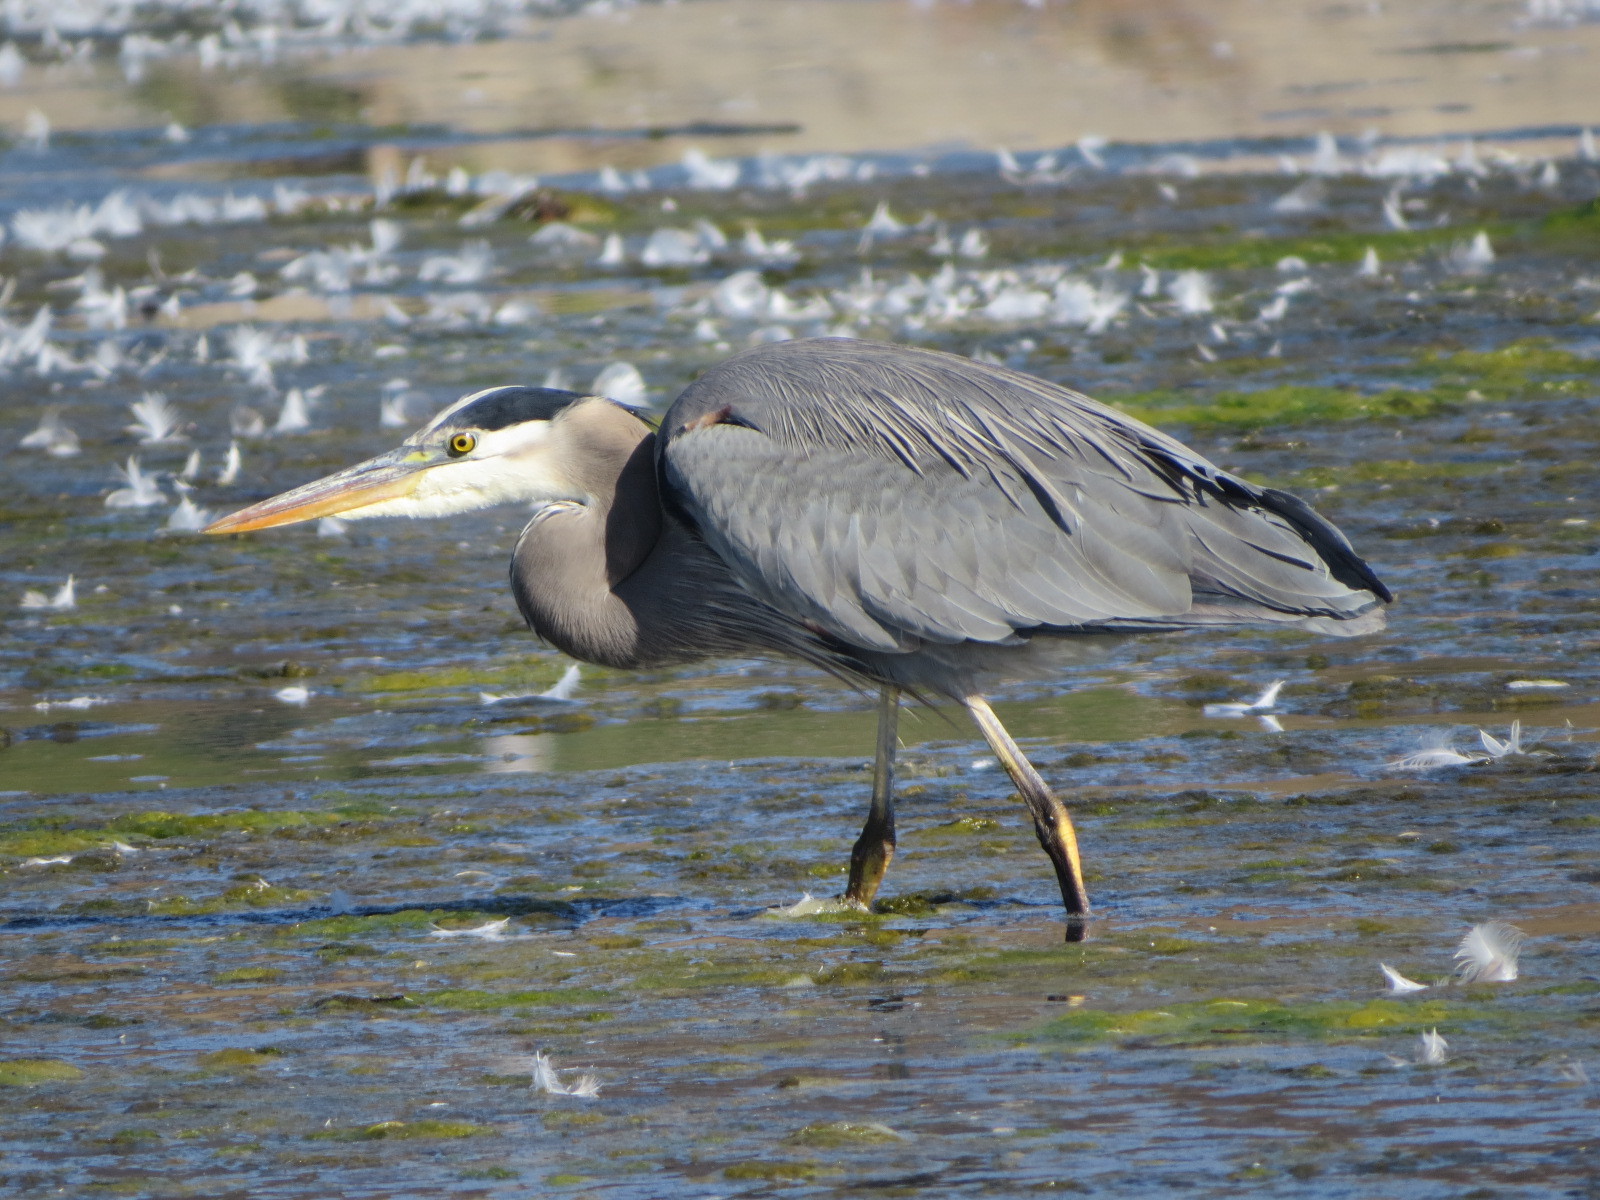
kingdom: Animalia
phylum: Chordata
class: Aves
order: Pelecaniformes
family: Ardeidae
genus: Ardea
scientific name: Ardea herodias
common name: Great blue heron
